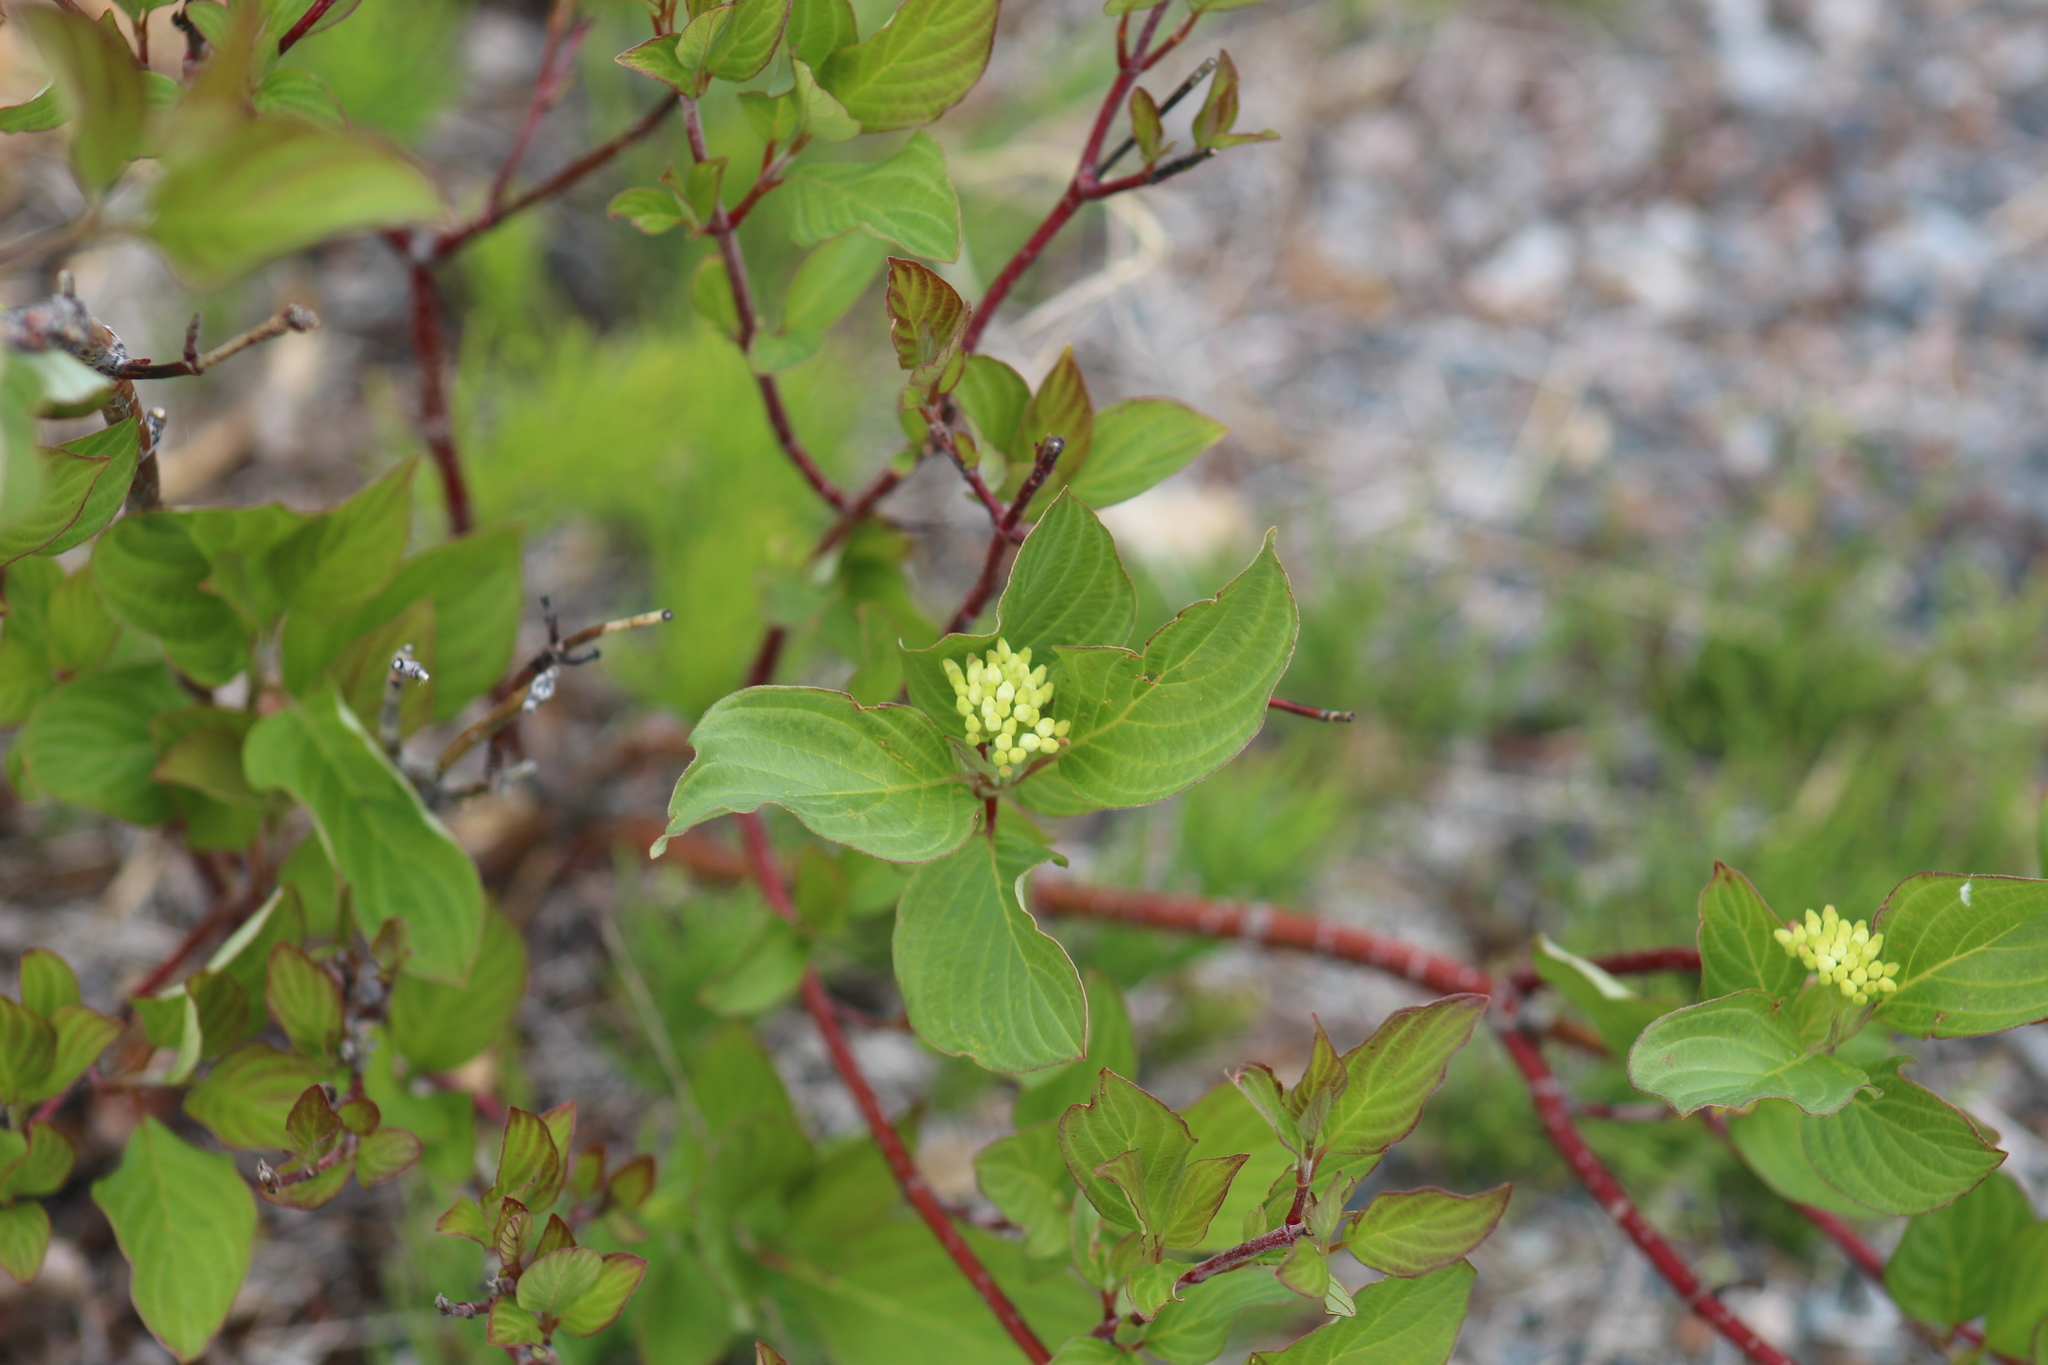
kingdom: Plantae
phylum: Tracheophyta
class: Magnoliopsida
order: Cornales
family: Cornaceae
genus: Cornus
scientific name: Cornus sericea
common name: Red-osier dogwood
